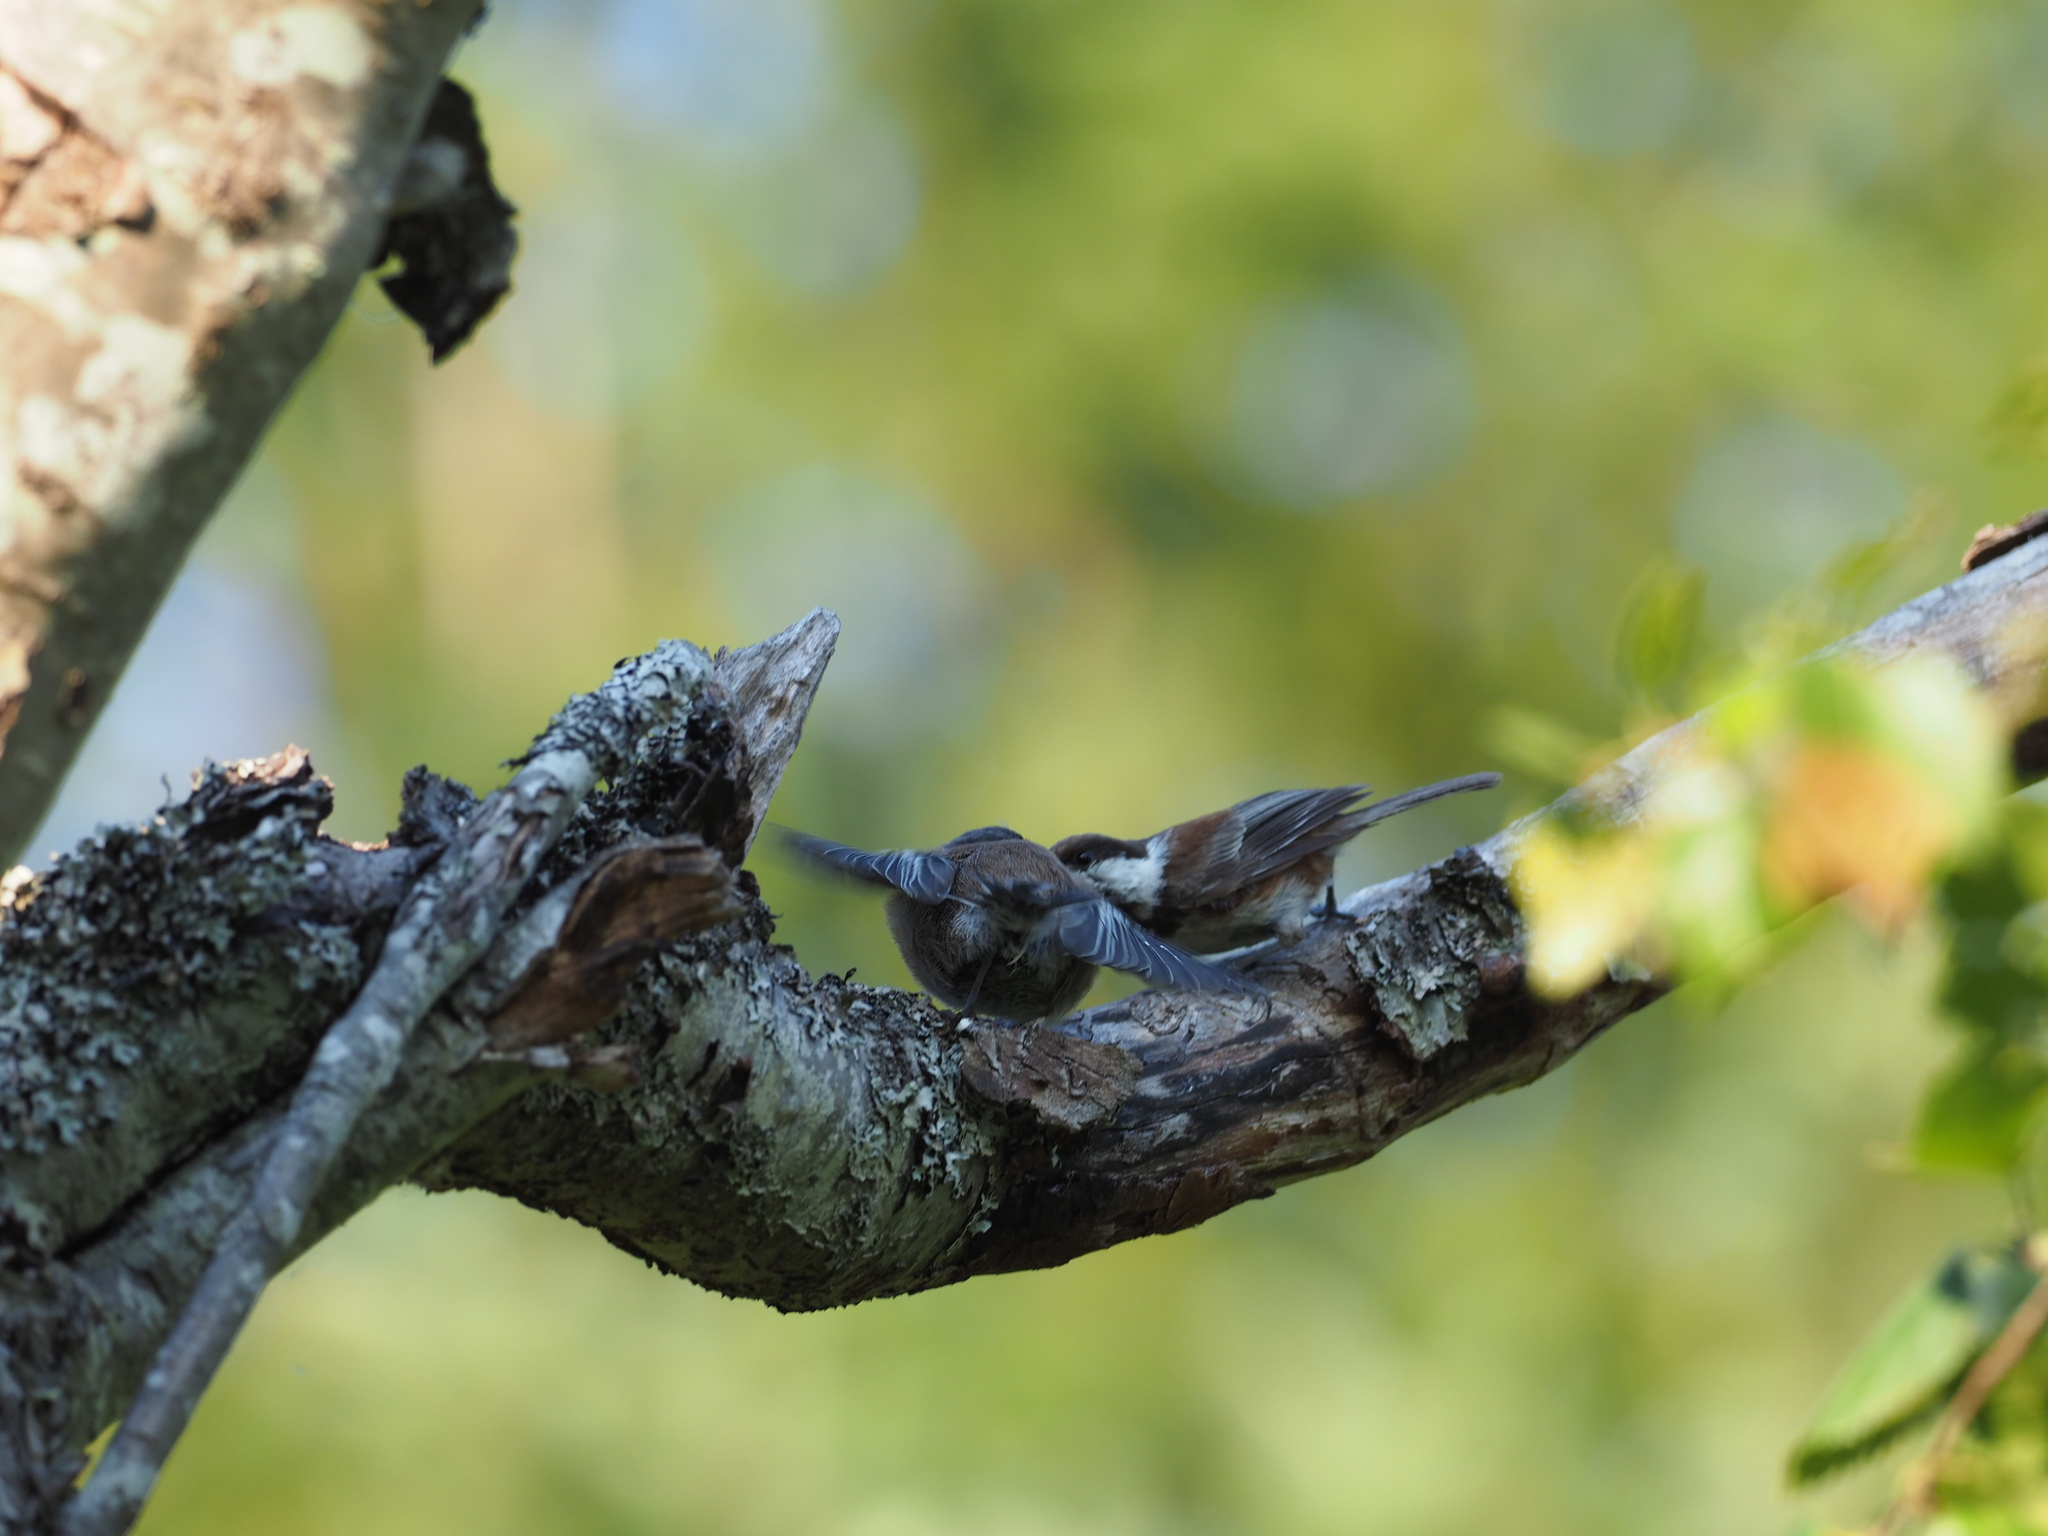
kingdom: Animalia
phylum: Chordata
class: Aves
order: Passeriformes
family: Paridae
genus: Poecile
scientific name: Poecile rufescens
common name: Chestnut-backed chickadee
